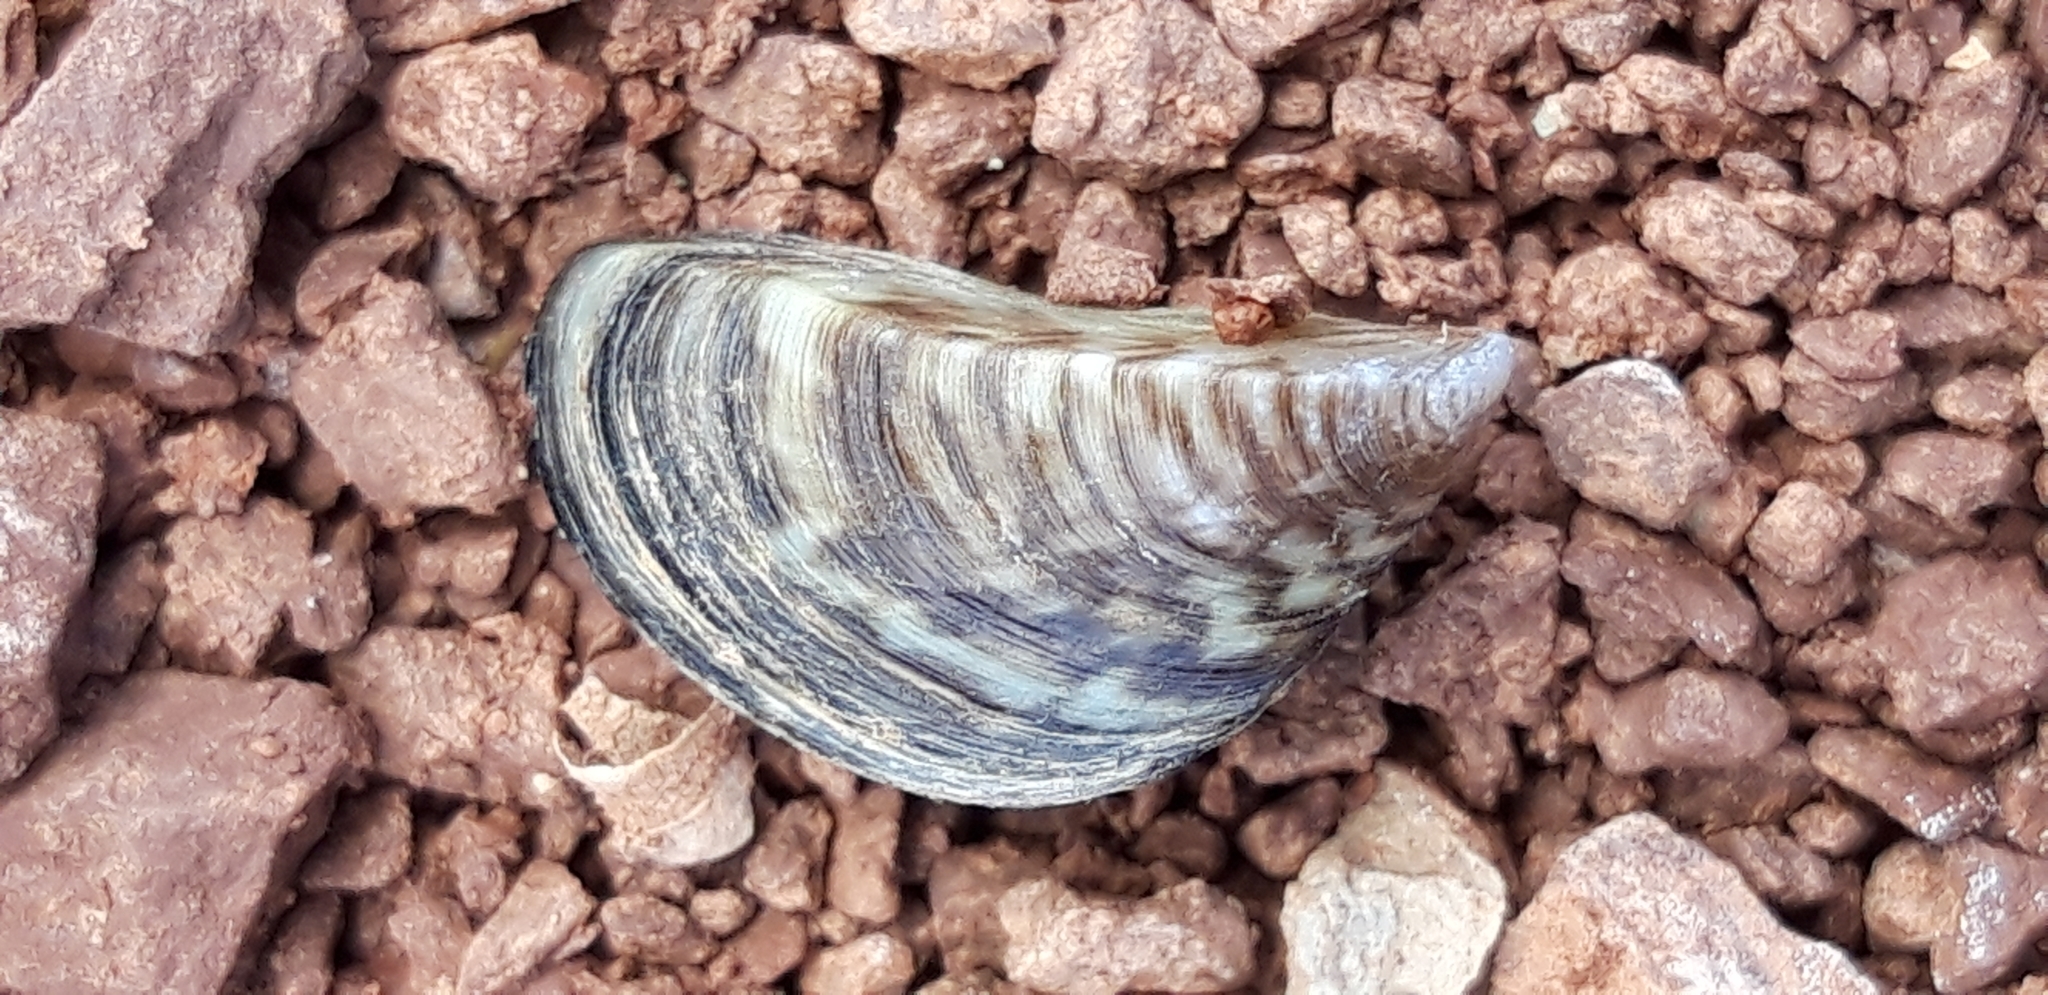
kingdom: Animalia
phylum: Mollusca
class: Bivalvia
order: Myida
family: Dreissenidae
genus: Dreissena
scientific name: Dreissena polymorpha
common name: Zebra mussel
